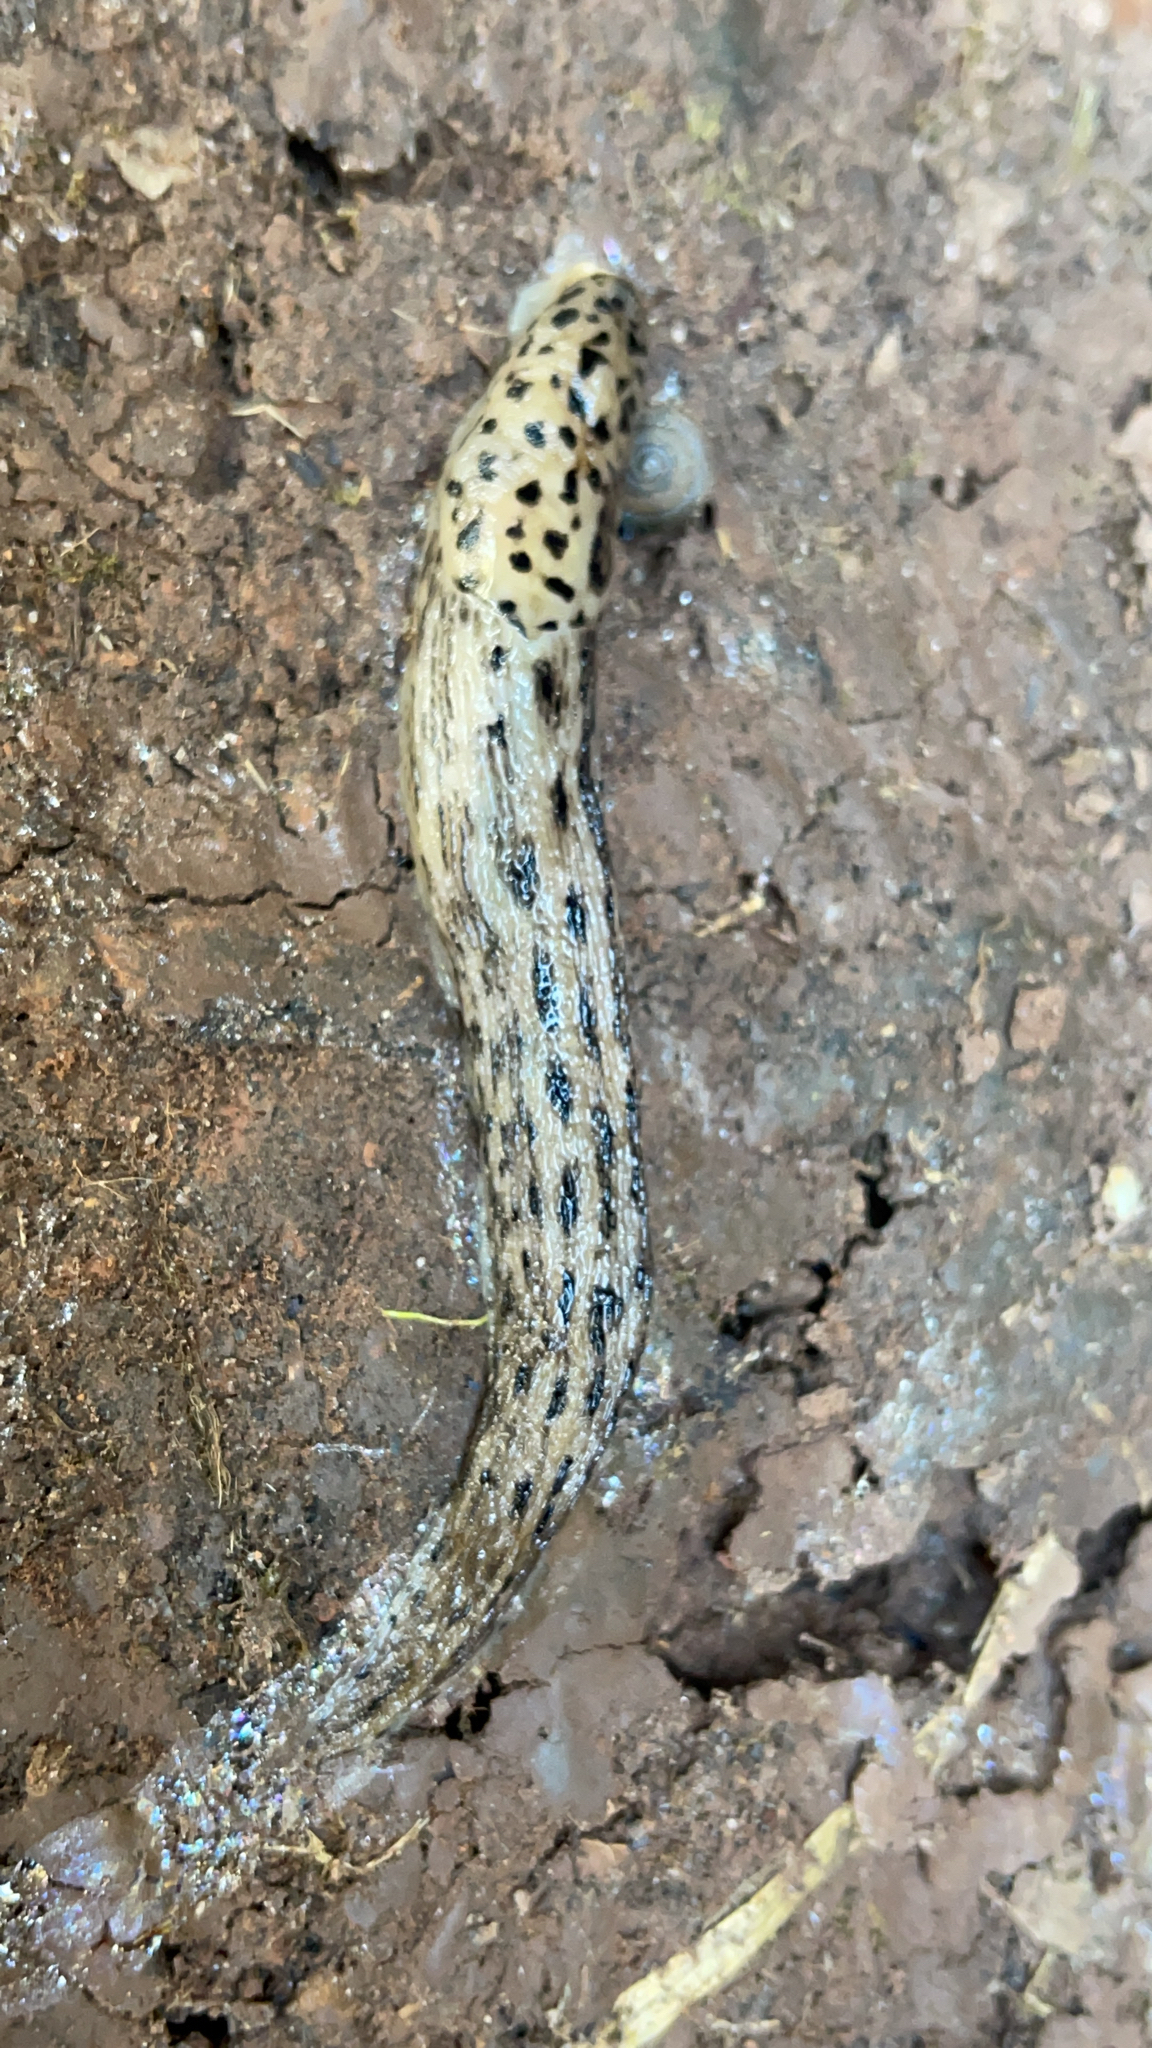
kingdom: Animalia
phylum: Mollusca
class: Gastropoda
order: Stylommatophora
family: Limacidae
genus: Limax
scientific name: Limax maximus
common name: Great grey slug
